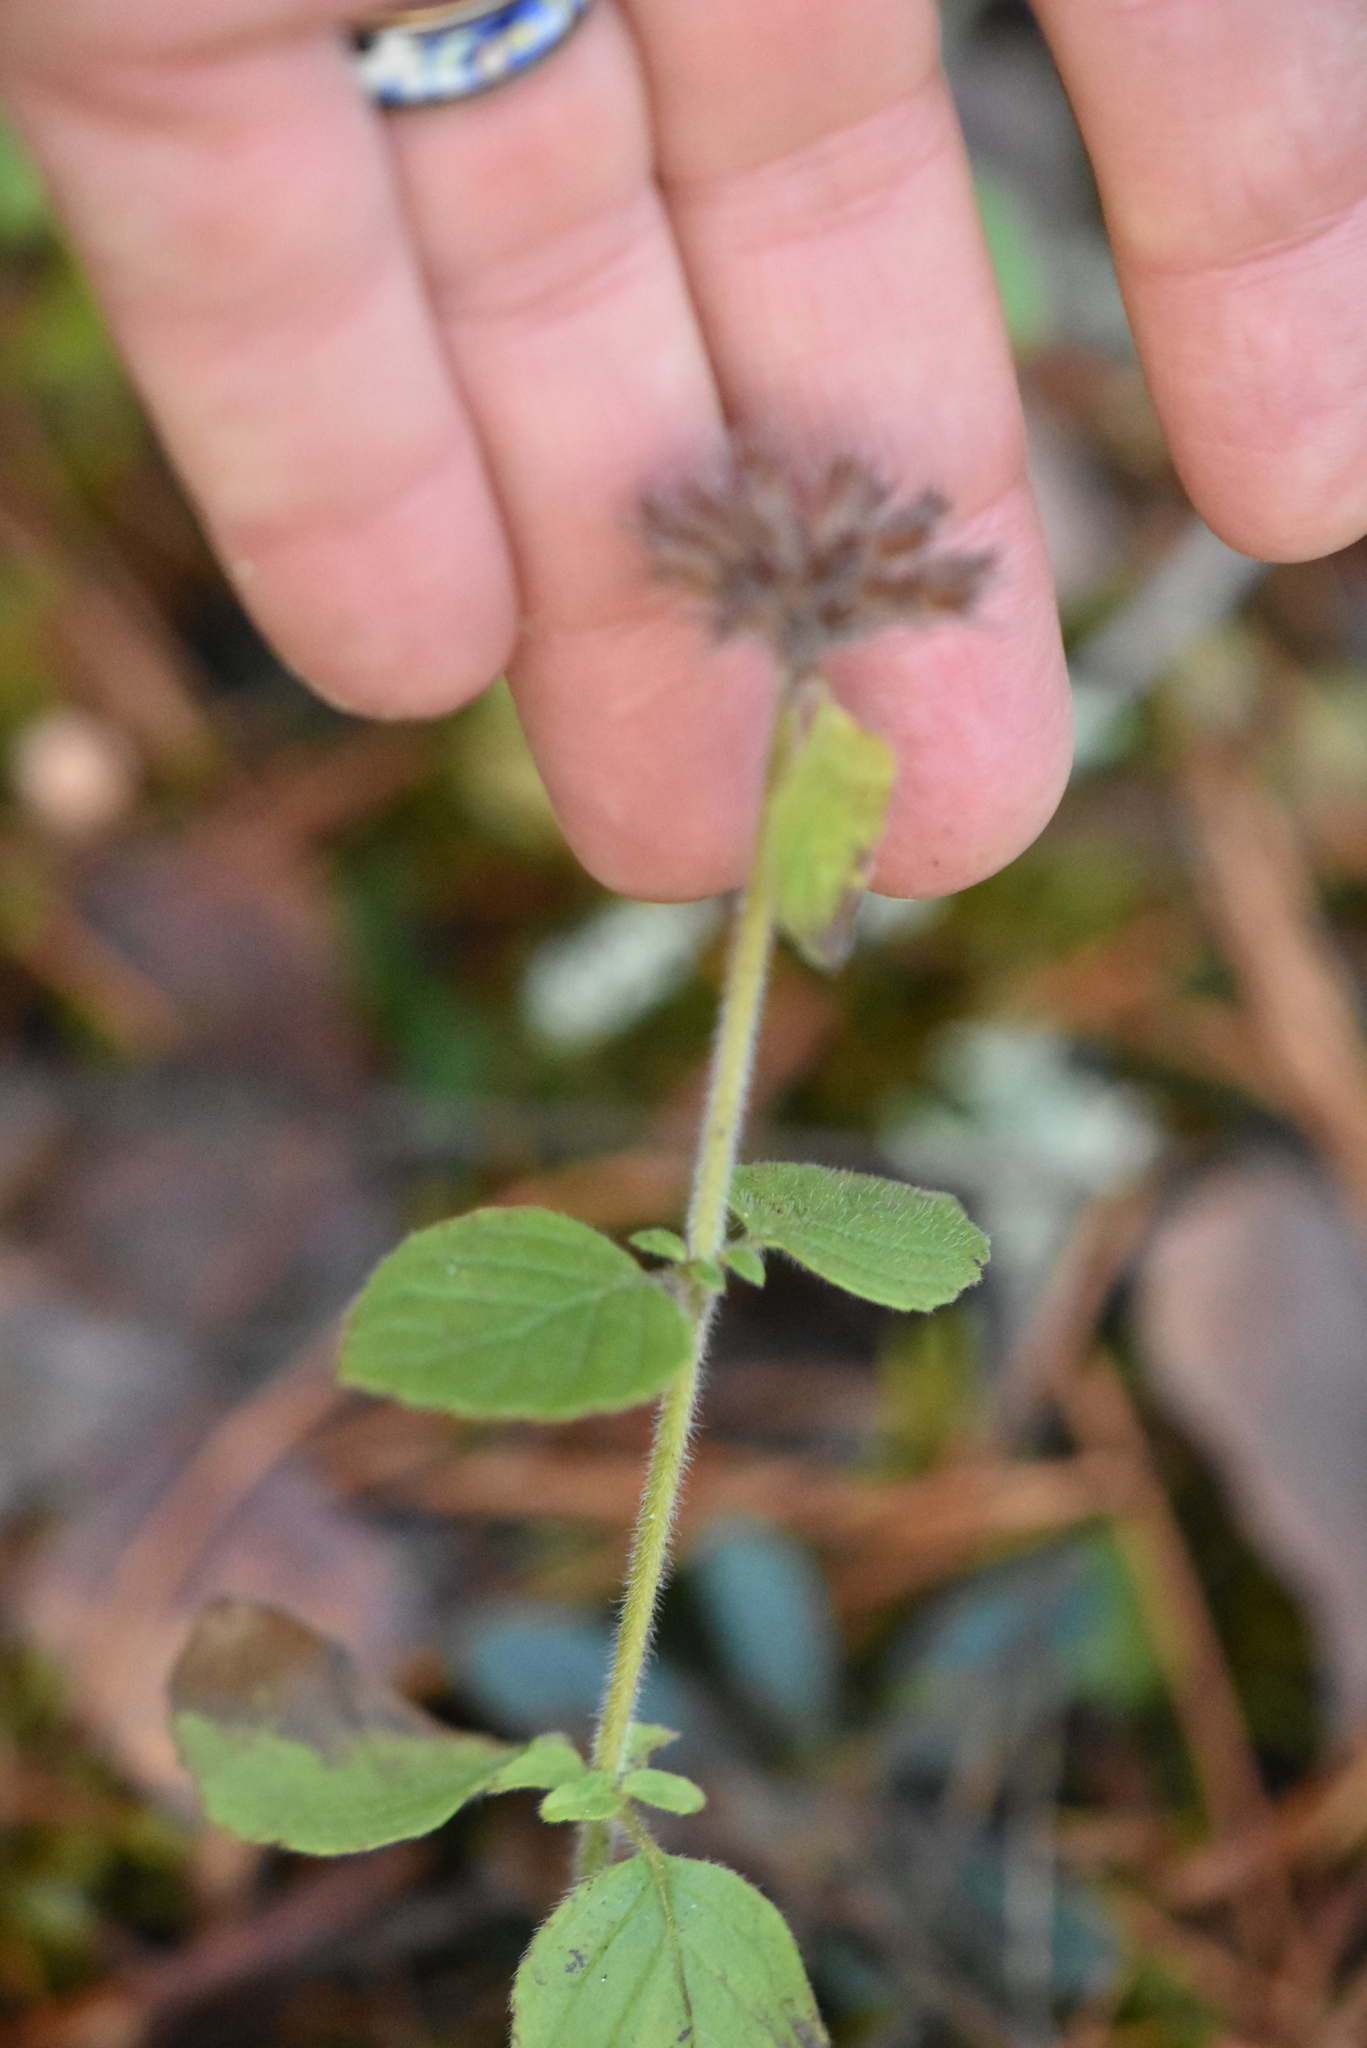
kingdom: Plantae
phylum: Tracheophyta
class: Magnoliopsida
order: Lamiales
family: Lamiaceae
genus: Clinopodium
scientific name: Clinopodium vulgare
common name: Wild basil
